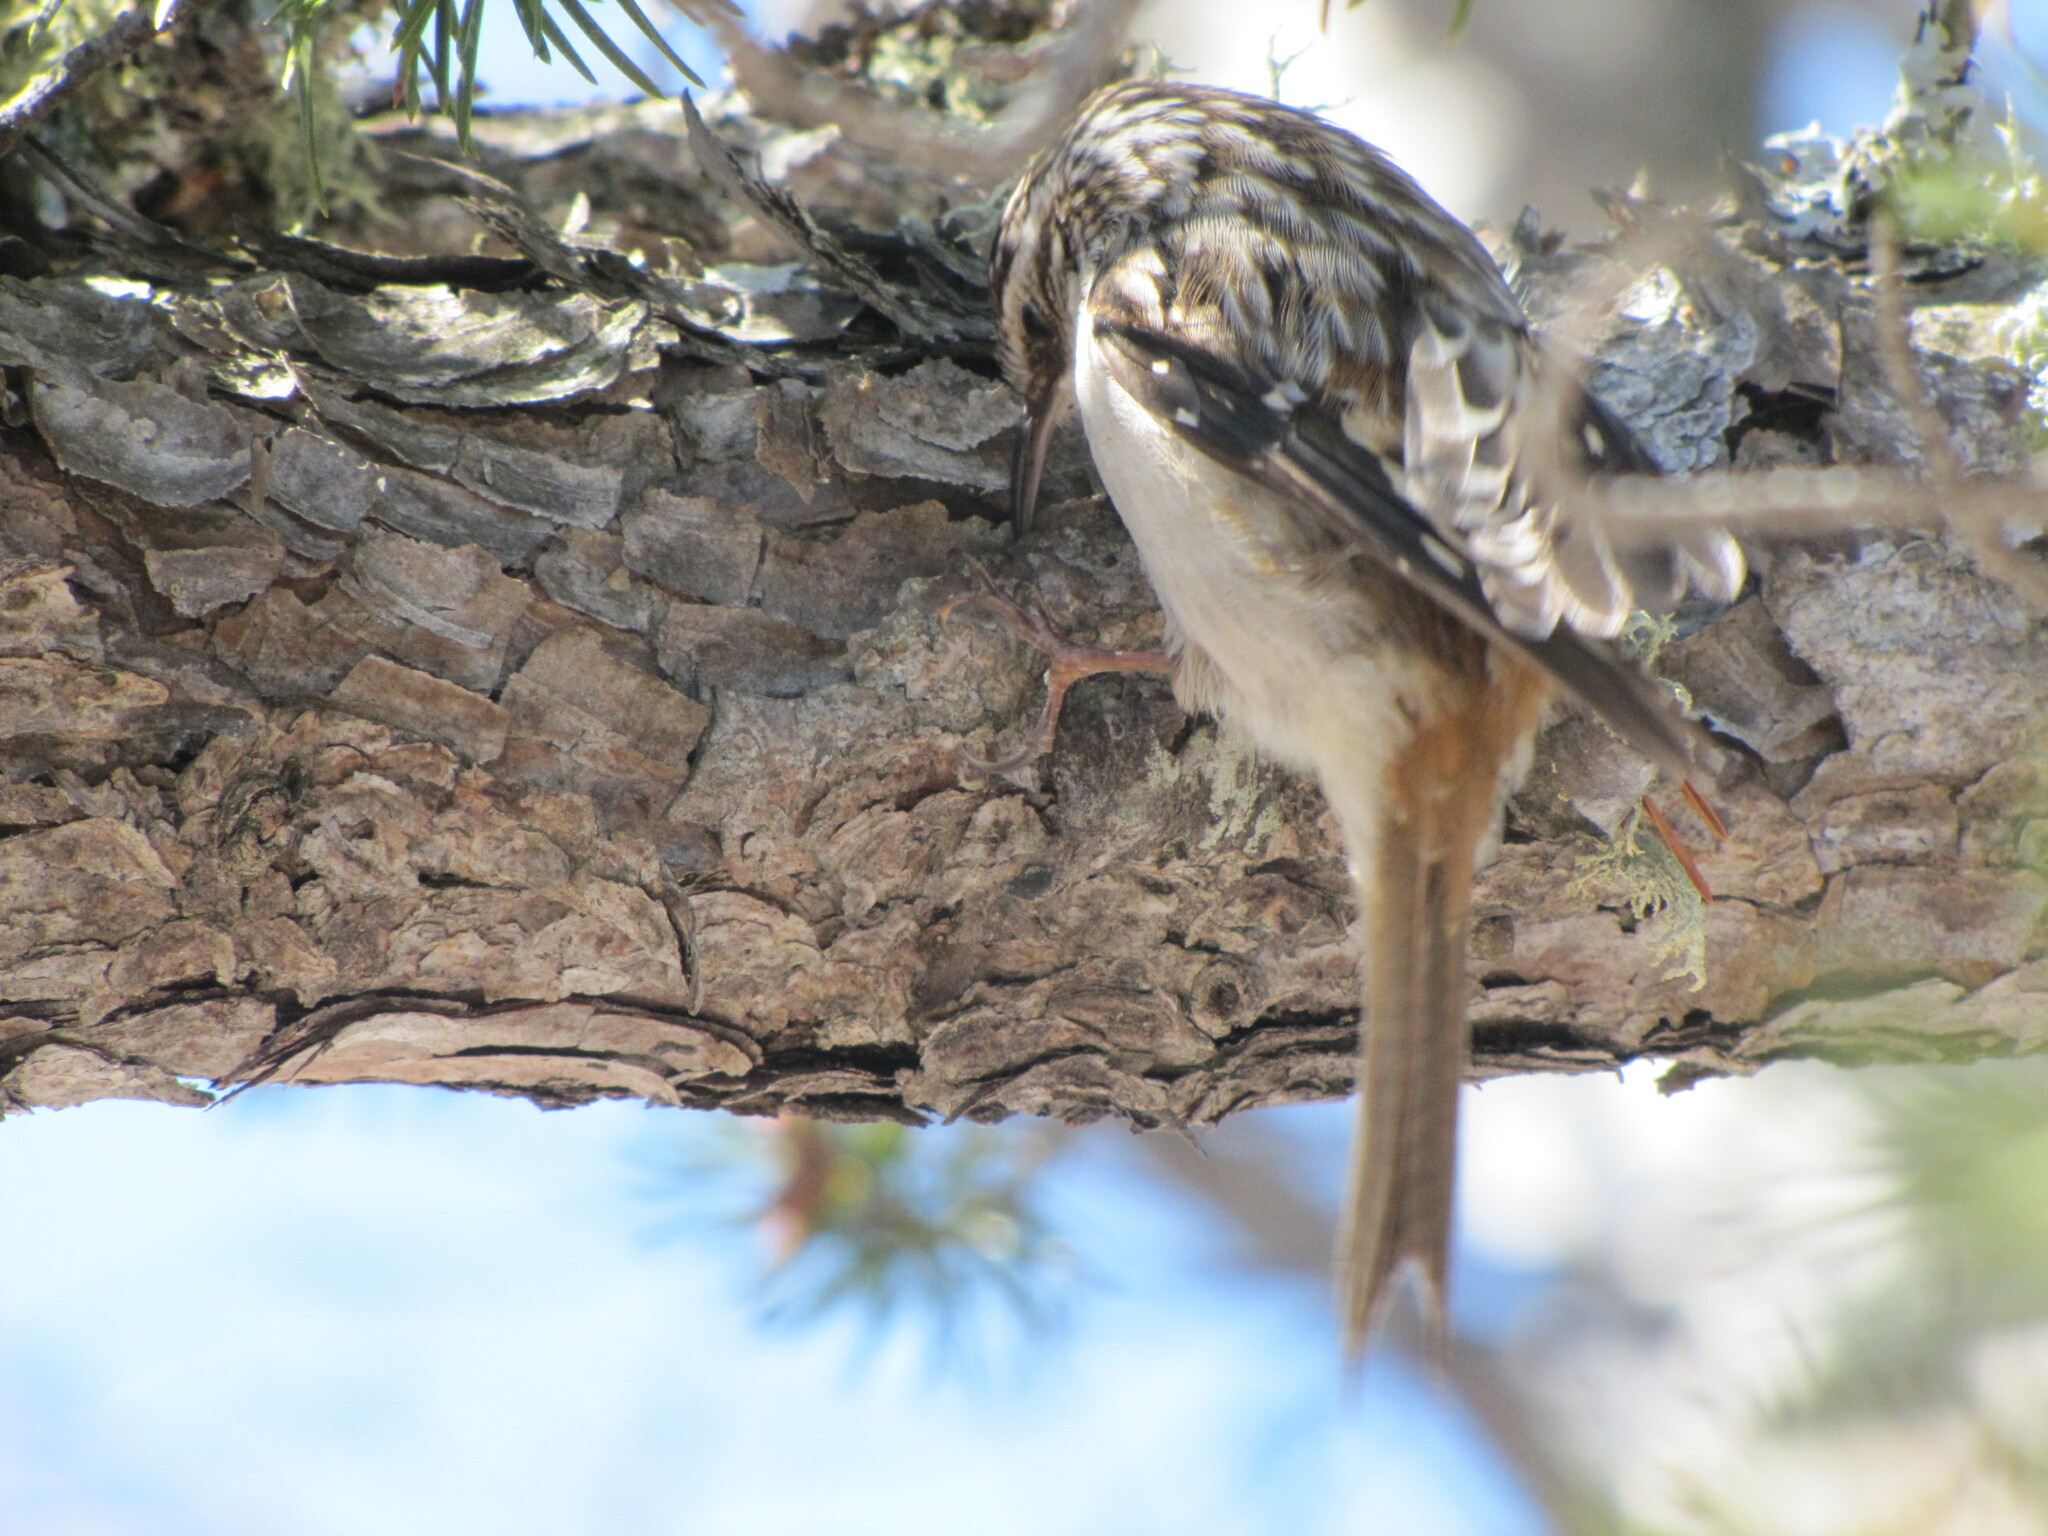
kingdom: Animalia
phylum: Chordata
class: Aves
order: Passeriformes
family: Certhiidae
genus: Certhia
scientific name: Certhia americana
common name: Brown creeper
